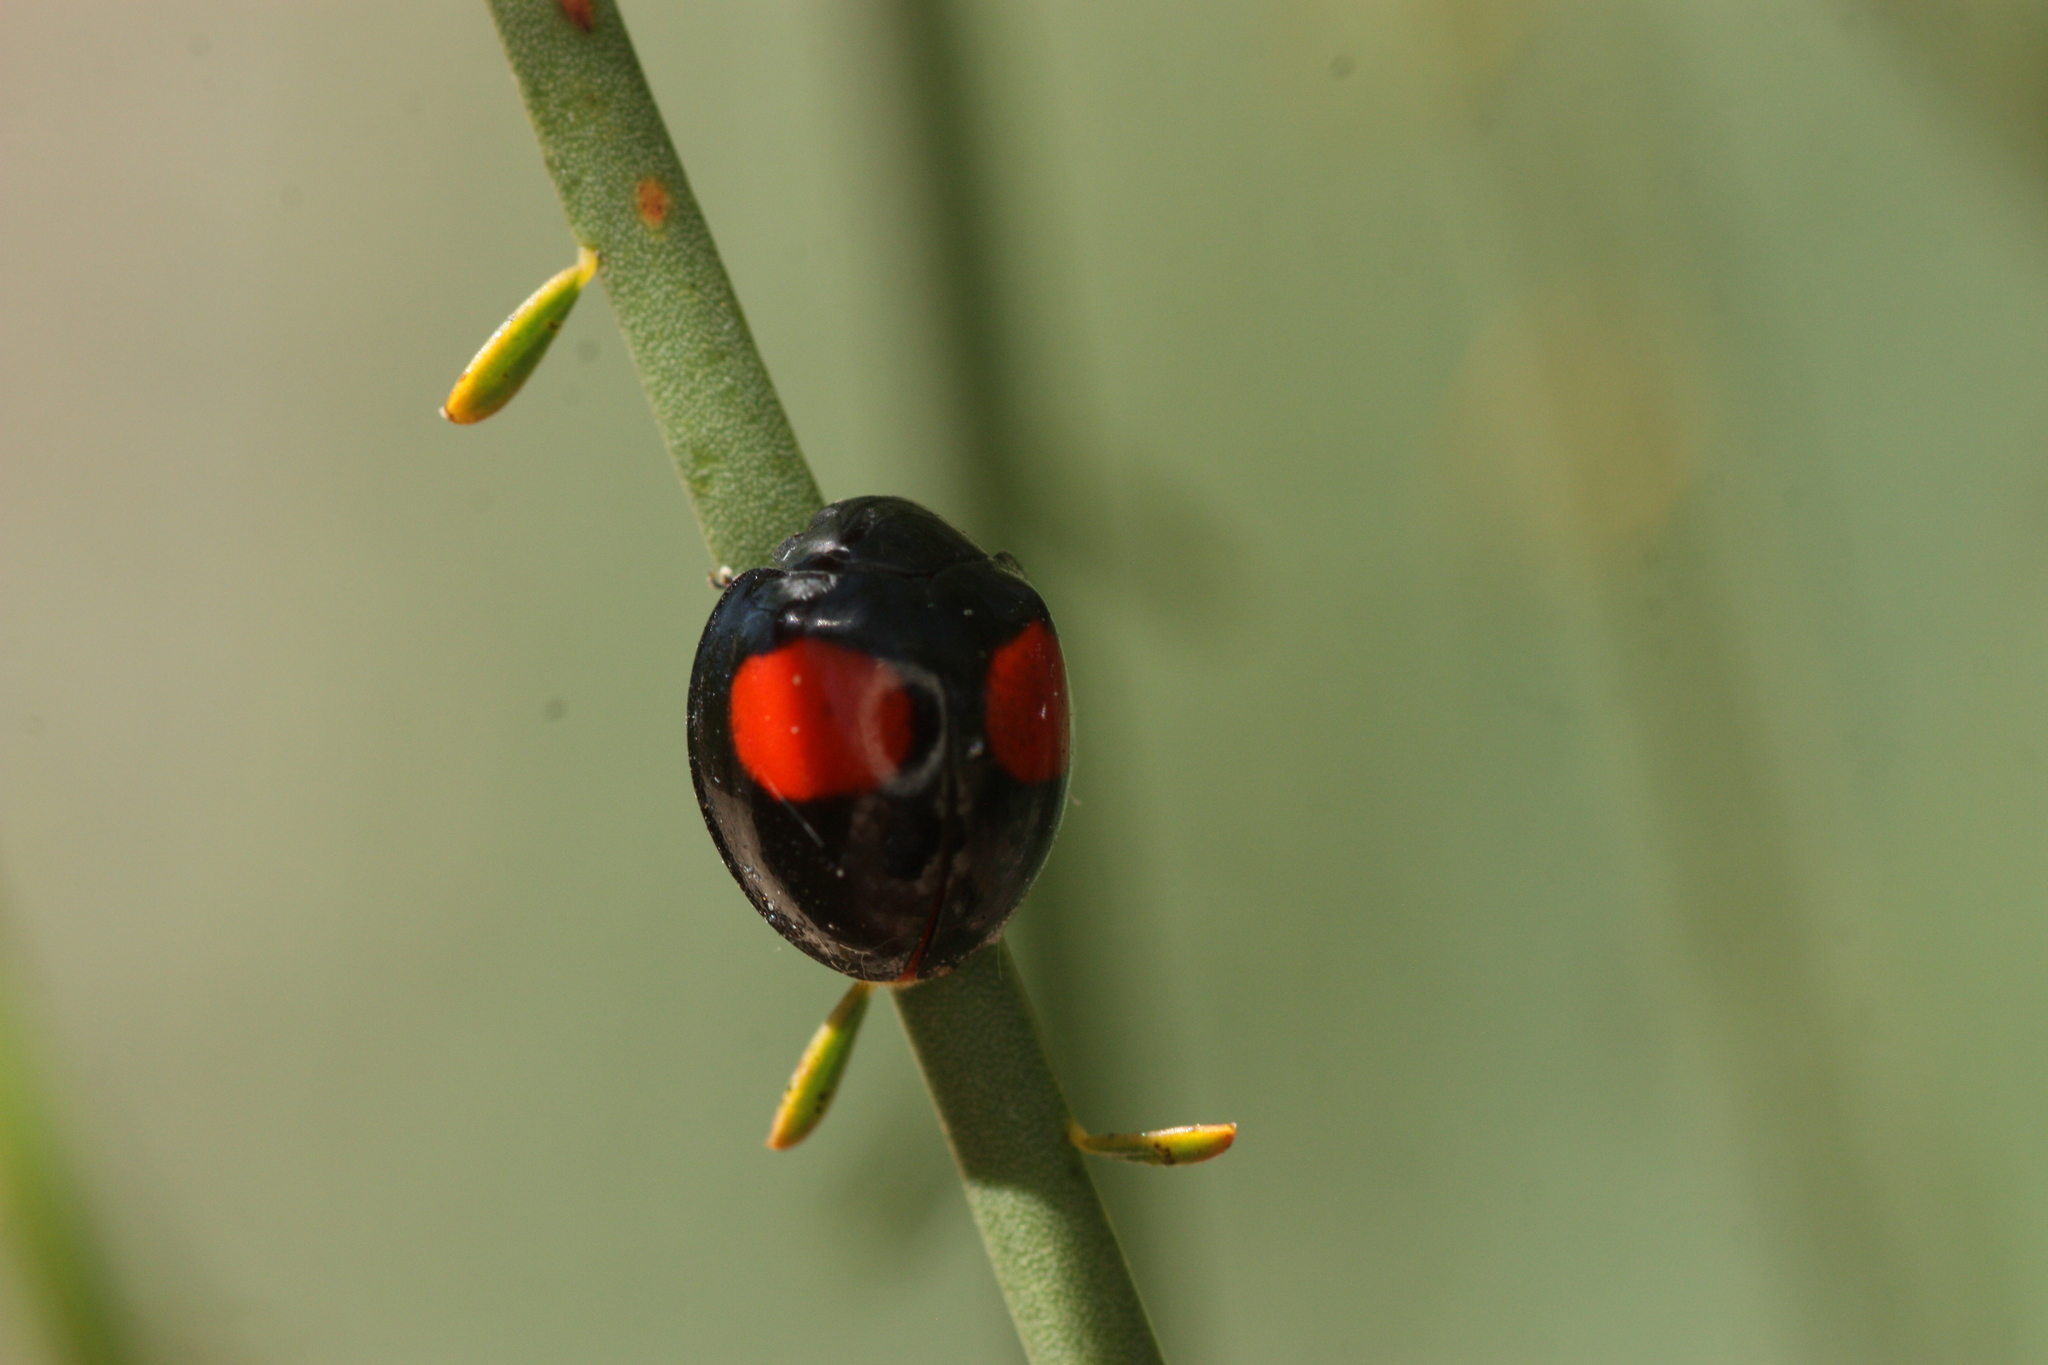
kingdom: Animalia
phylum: Arthropoda
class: Insecta
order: Coleoptera
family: Coccinellidae
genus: Chilocorus
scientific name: Chilocorus cacti
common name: Cactus lady beetle
